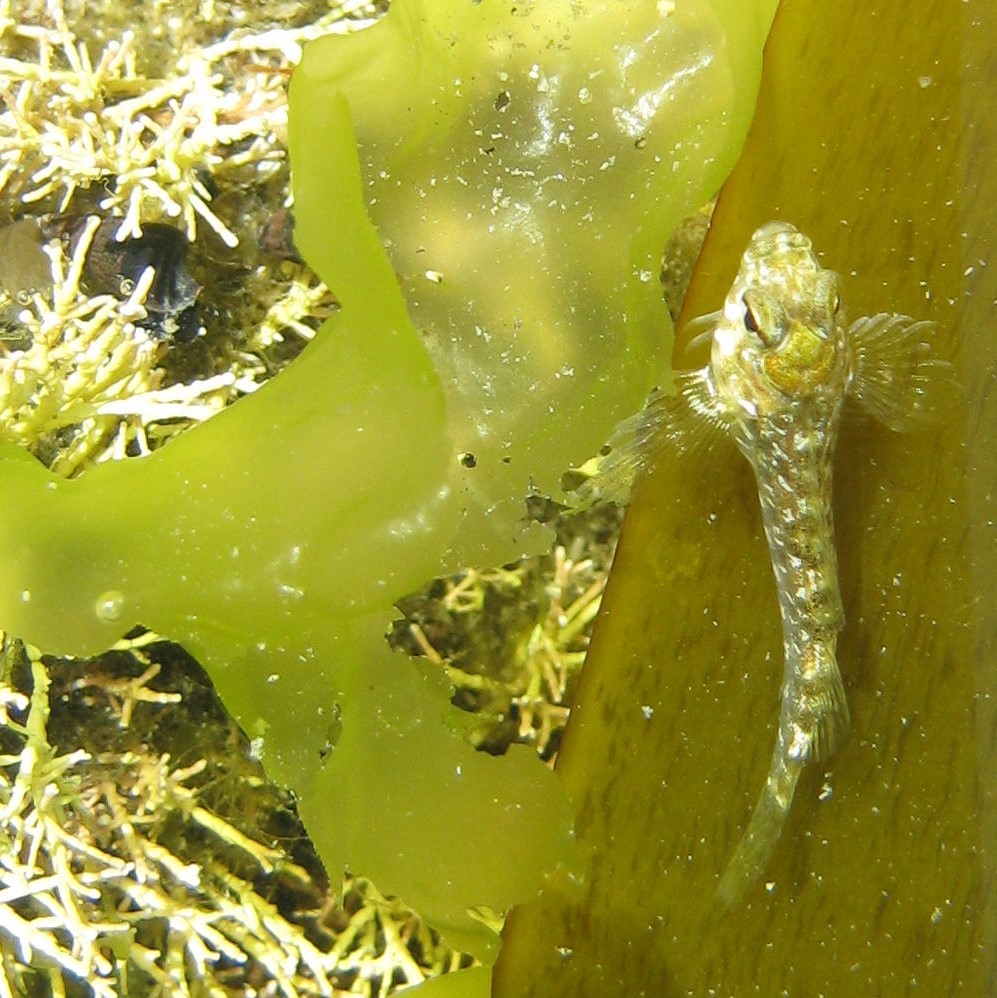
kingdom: Animalia
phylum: Chordata
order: Perciformes
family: Tripterygiidae
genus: Bellapiscis
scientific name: Bellapiscis medius
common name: Twister
